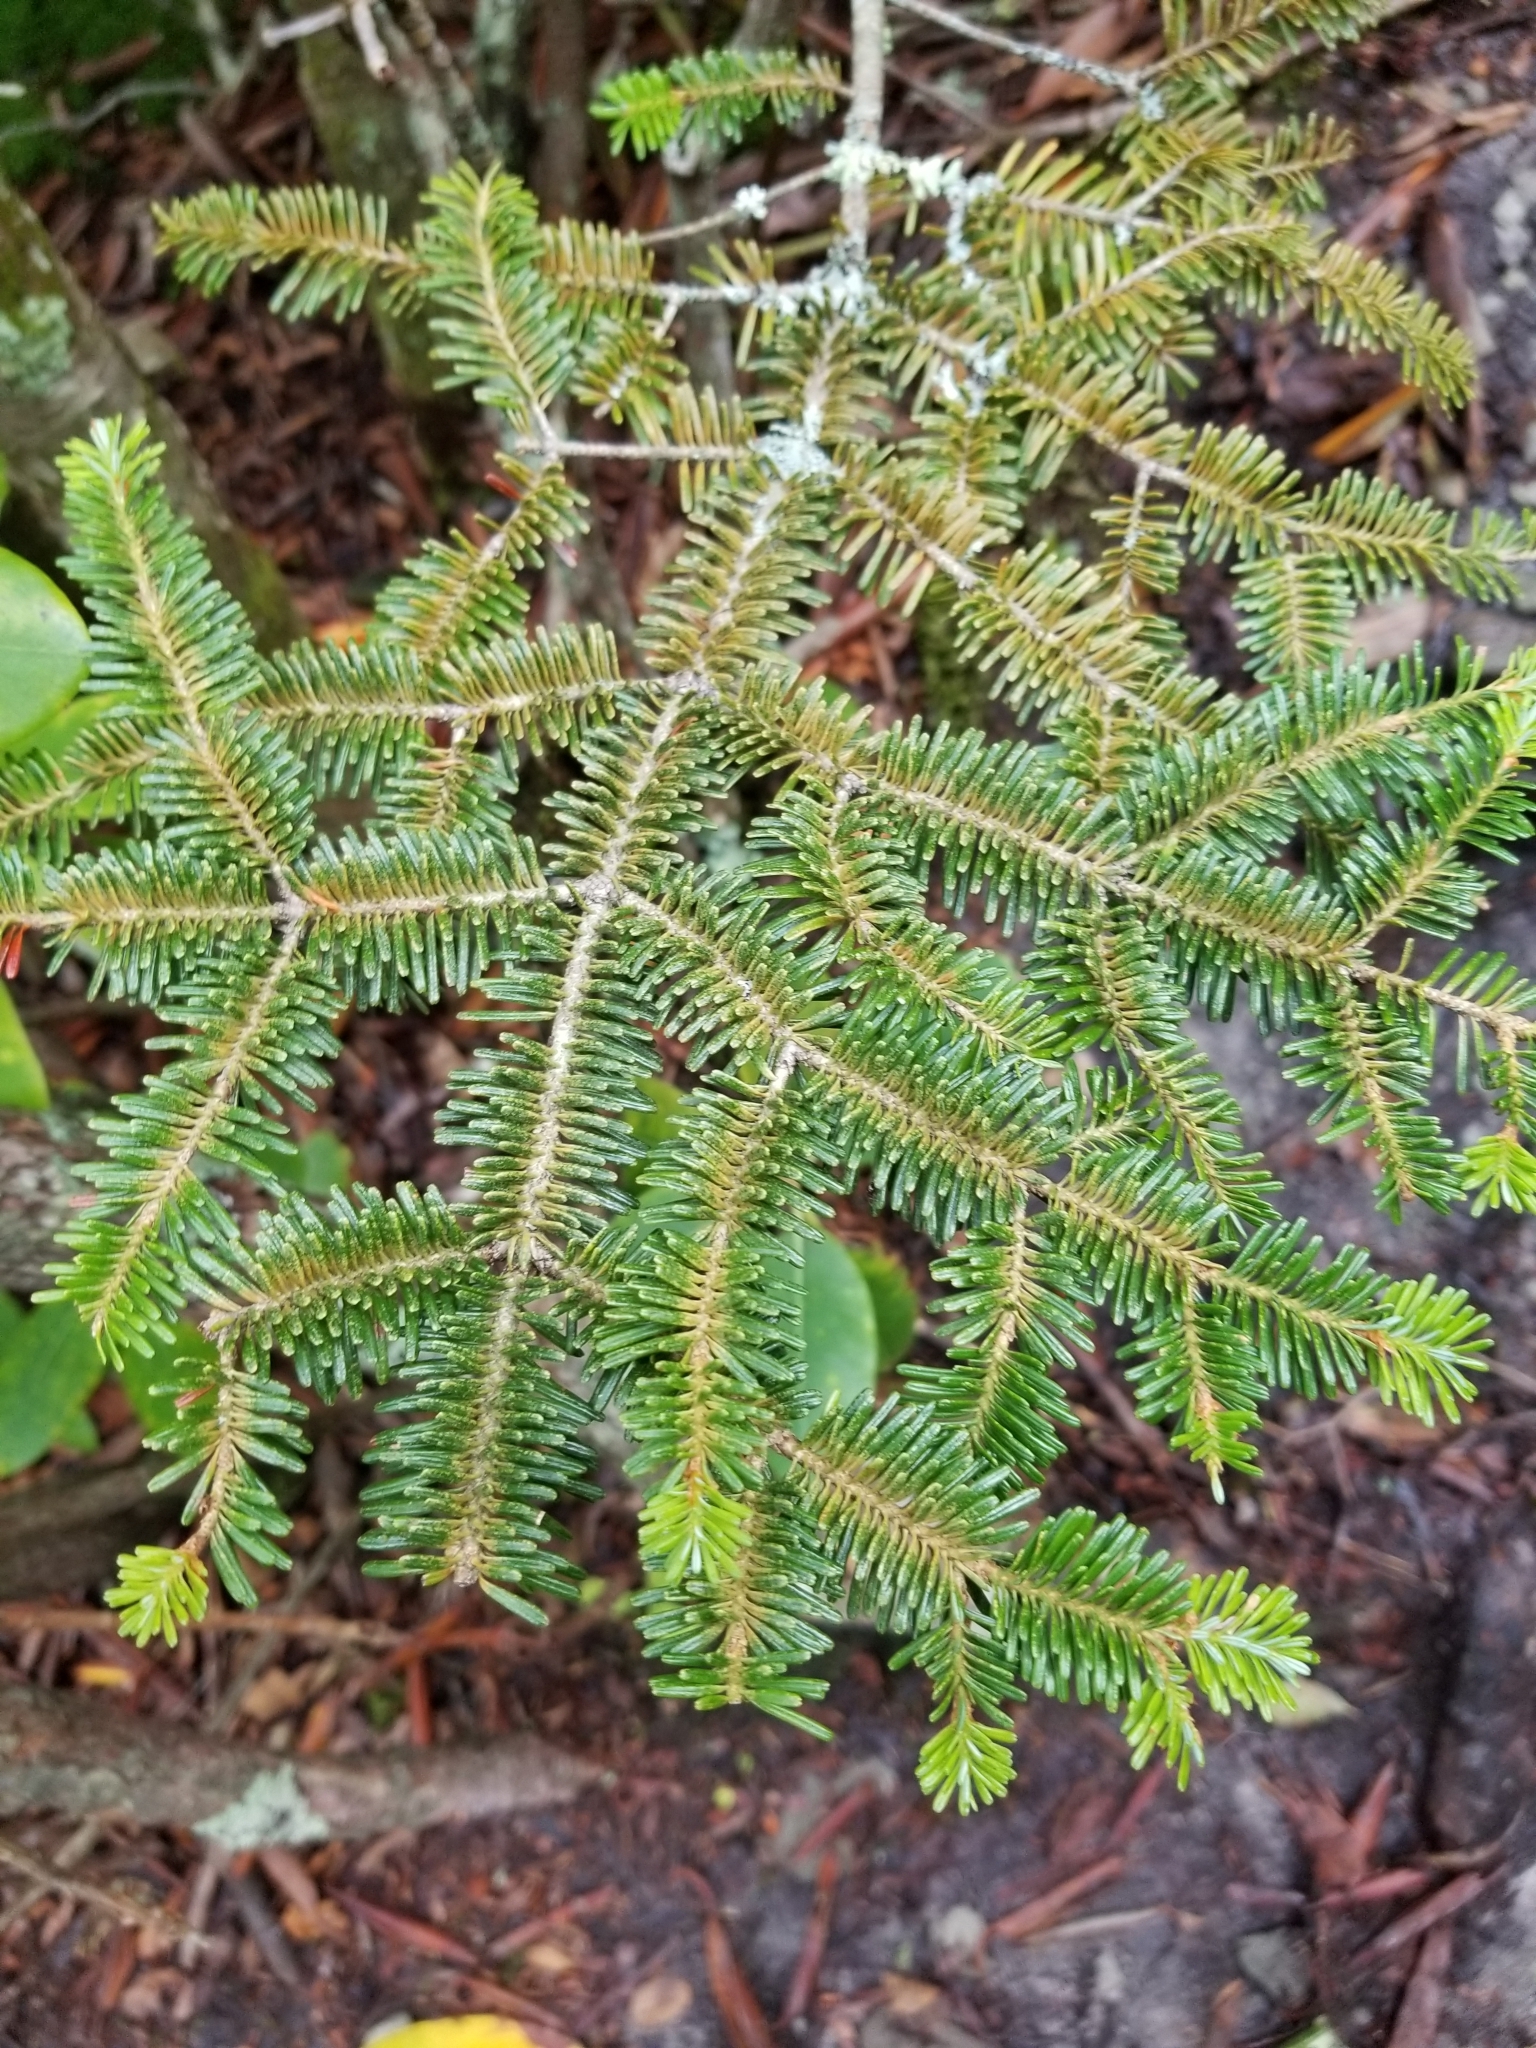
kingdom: Plantae
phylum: Tracheophyta
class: Pinopsida
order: Pinales
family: Pinaceae
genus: Abies
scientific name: Abies fraseri
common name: Fraser fir
